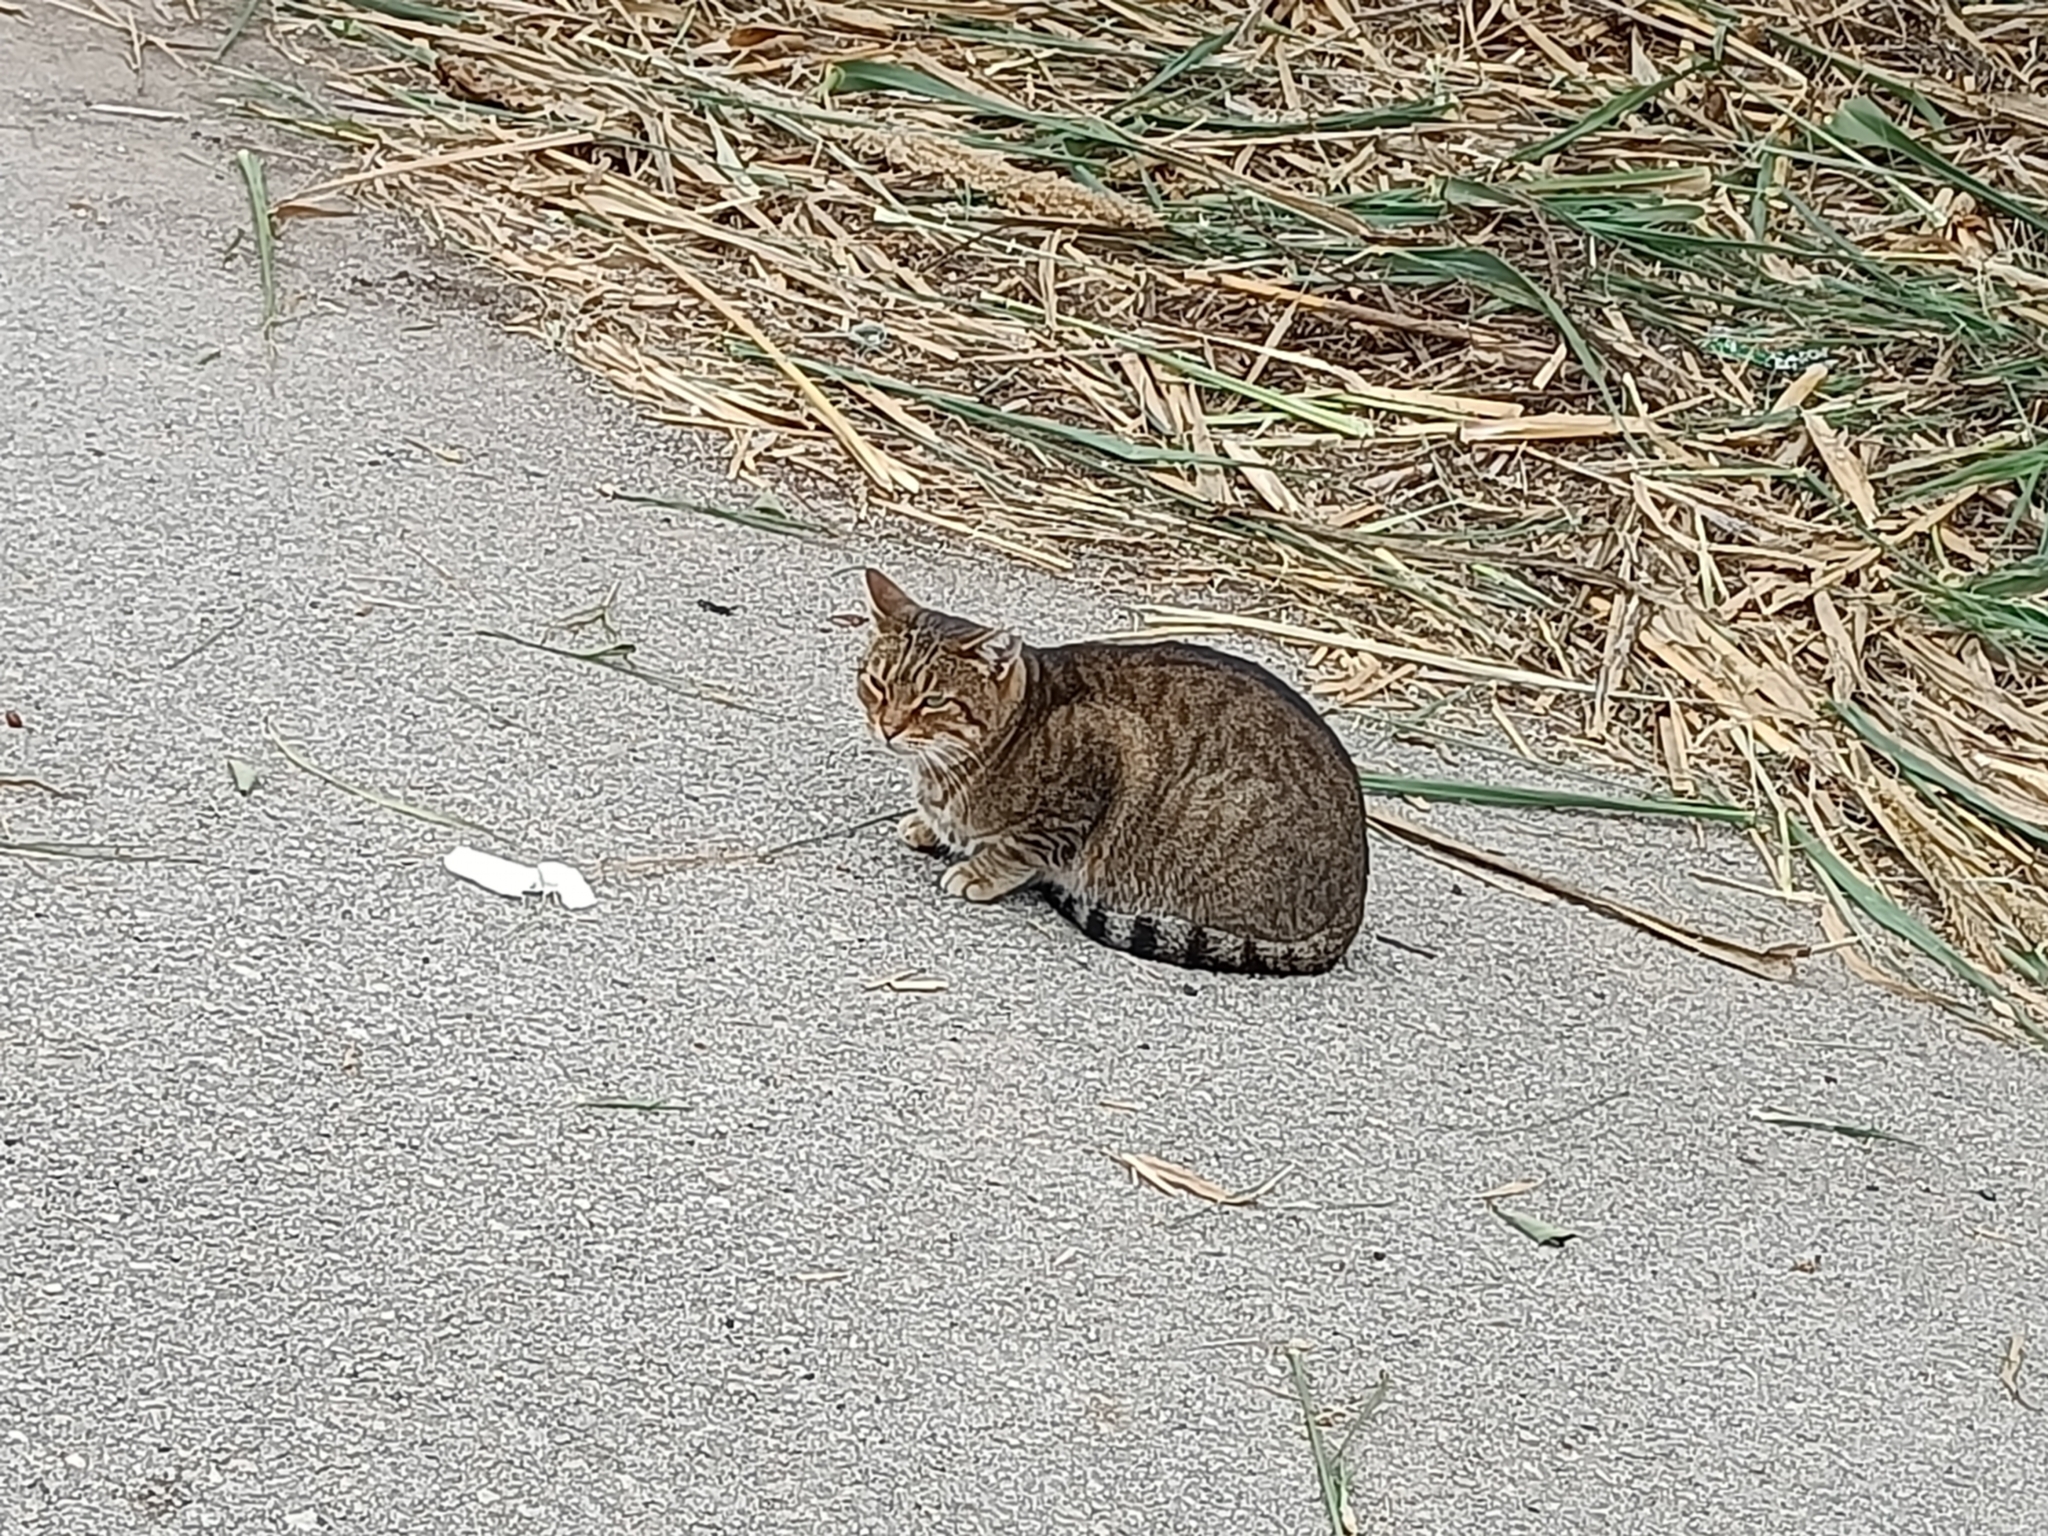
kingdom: Animalia
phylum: Chordata
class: Mammalia
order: Carnivora
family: Felidae
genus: Felis
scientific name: Felis catus
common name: Domestic cat
